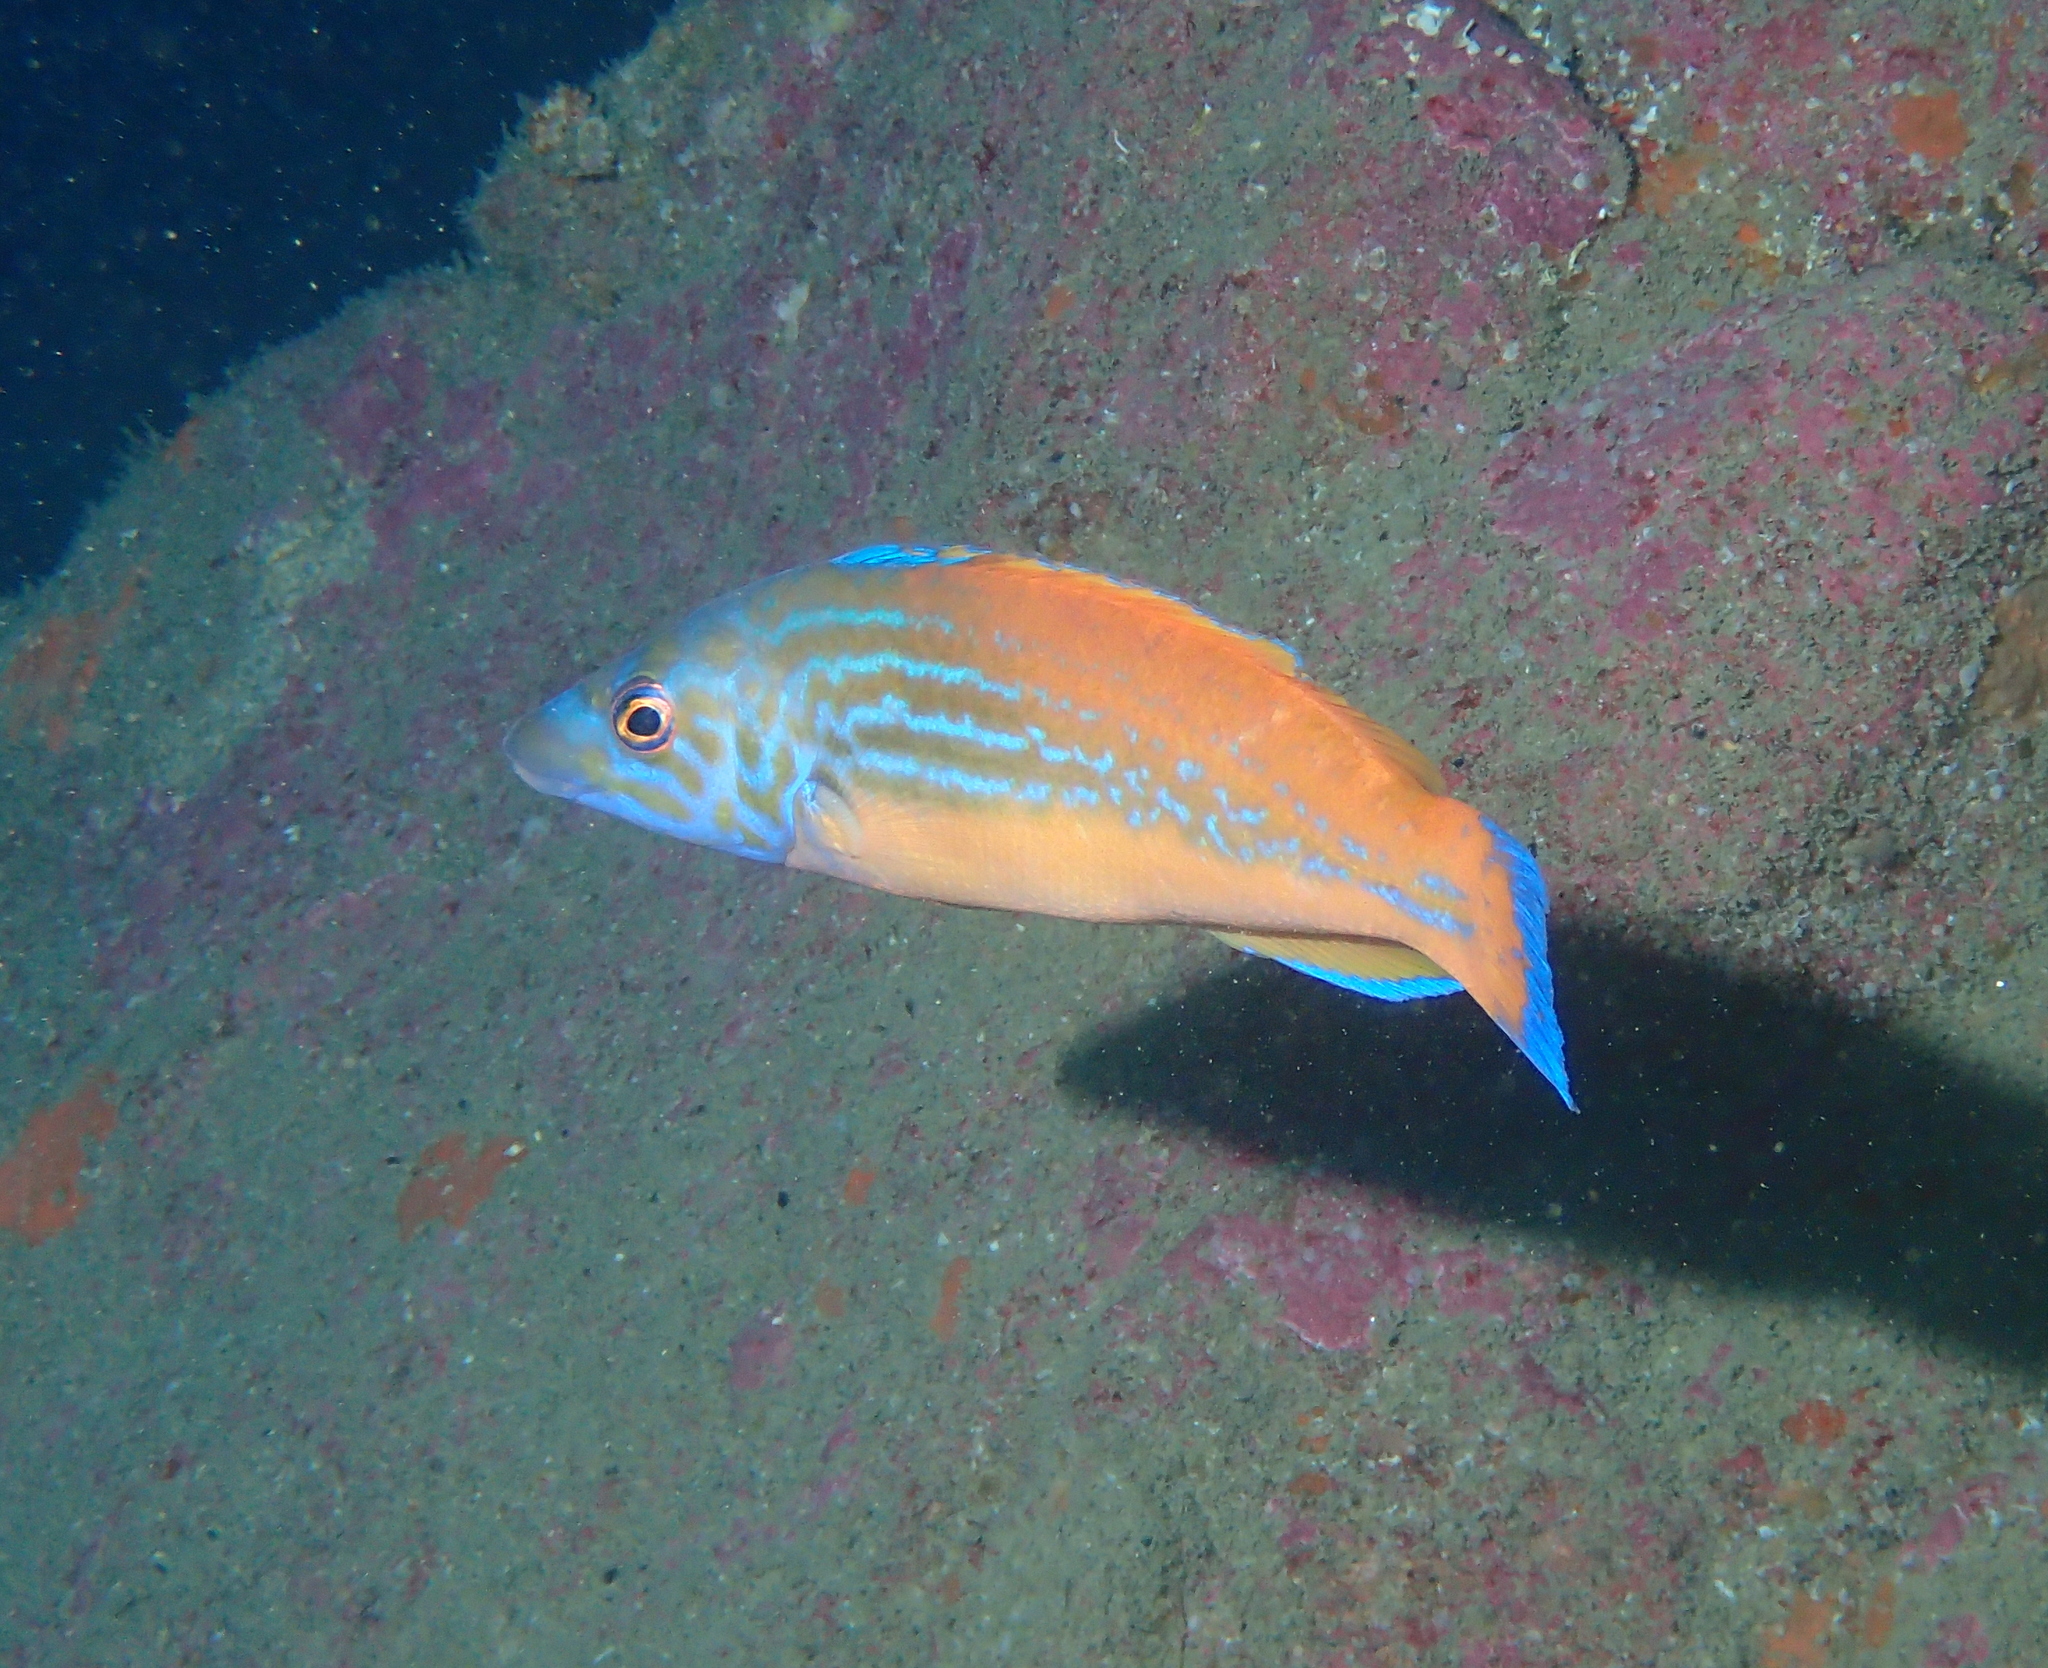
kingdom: Animalia
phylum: Chordata
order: Perciformes
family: Labridae
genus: Labrus
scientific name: Labrus mixtus
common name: Cuckoo wrasse
